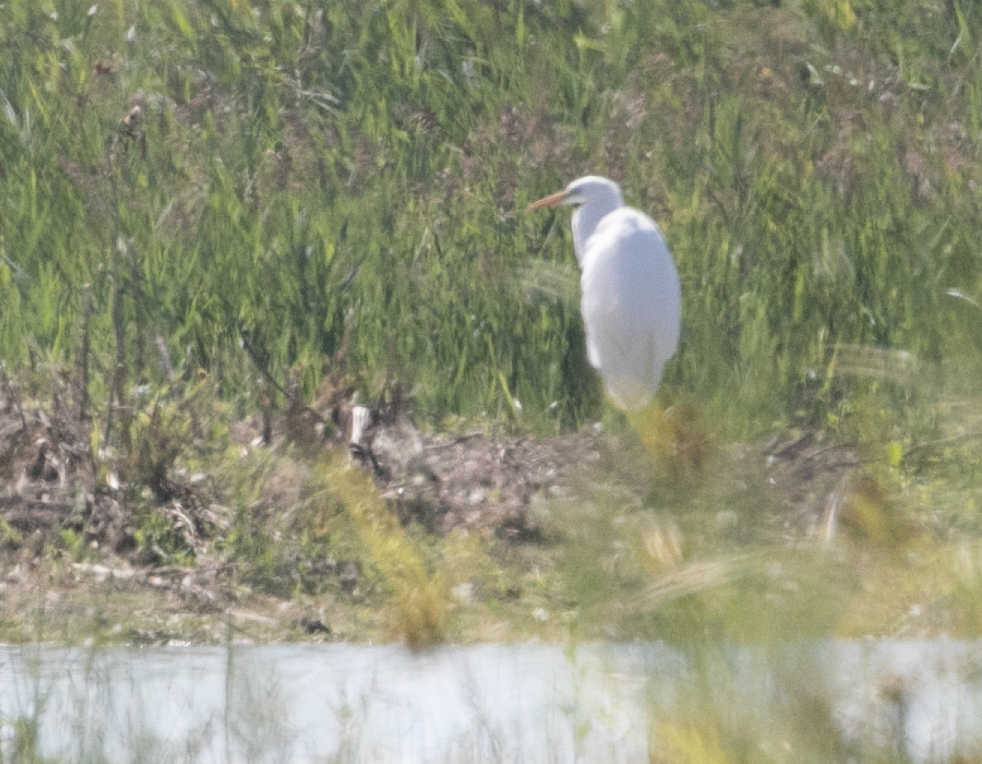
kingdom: Animalia
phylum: Chordata
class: Aves
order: Pelecaniformes
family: Ardeidae
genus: Ardea
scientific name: Ardea alba
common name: Great egret
